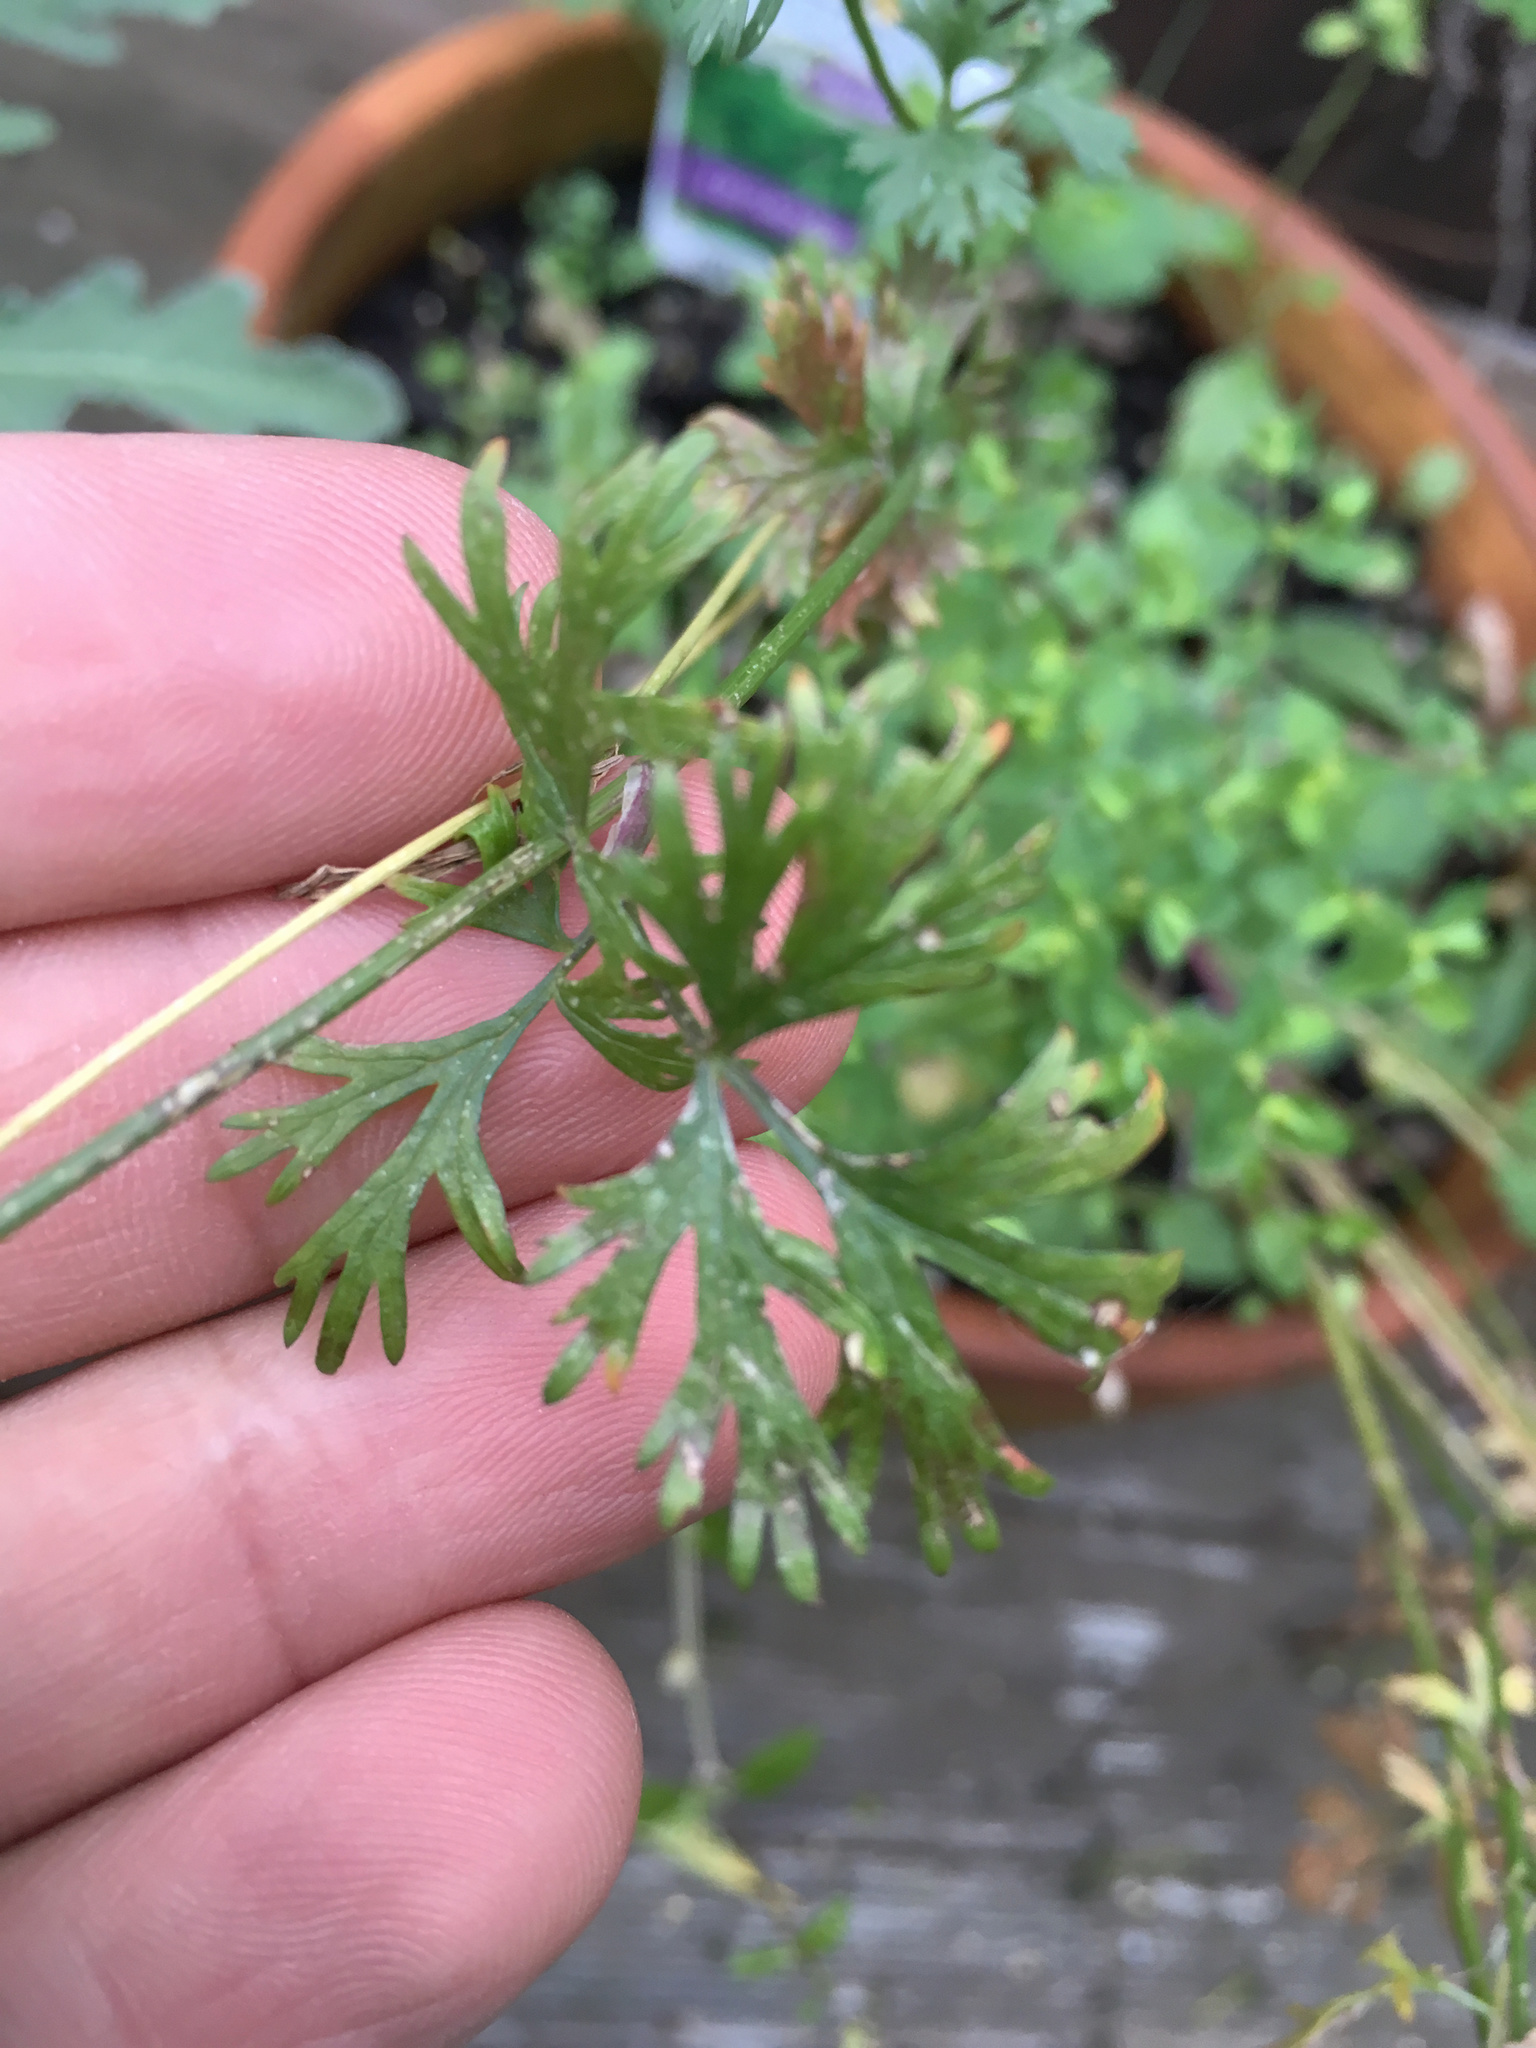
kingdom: Plantae
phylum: Tracheophyta
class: Magnoliopsida
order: Apiales
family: Apiaceae
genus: Coriandrum
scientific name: Coriandrum sativum
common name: Coriander
